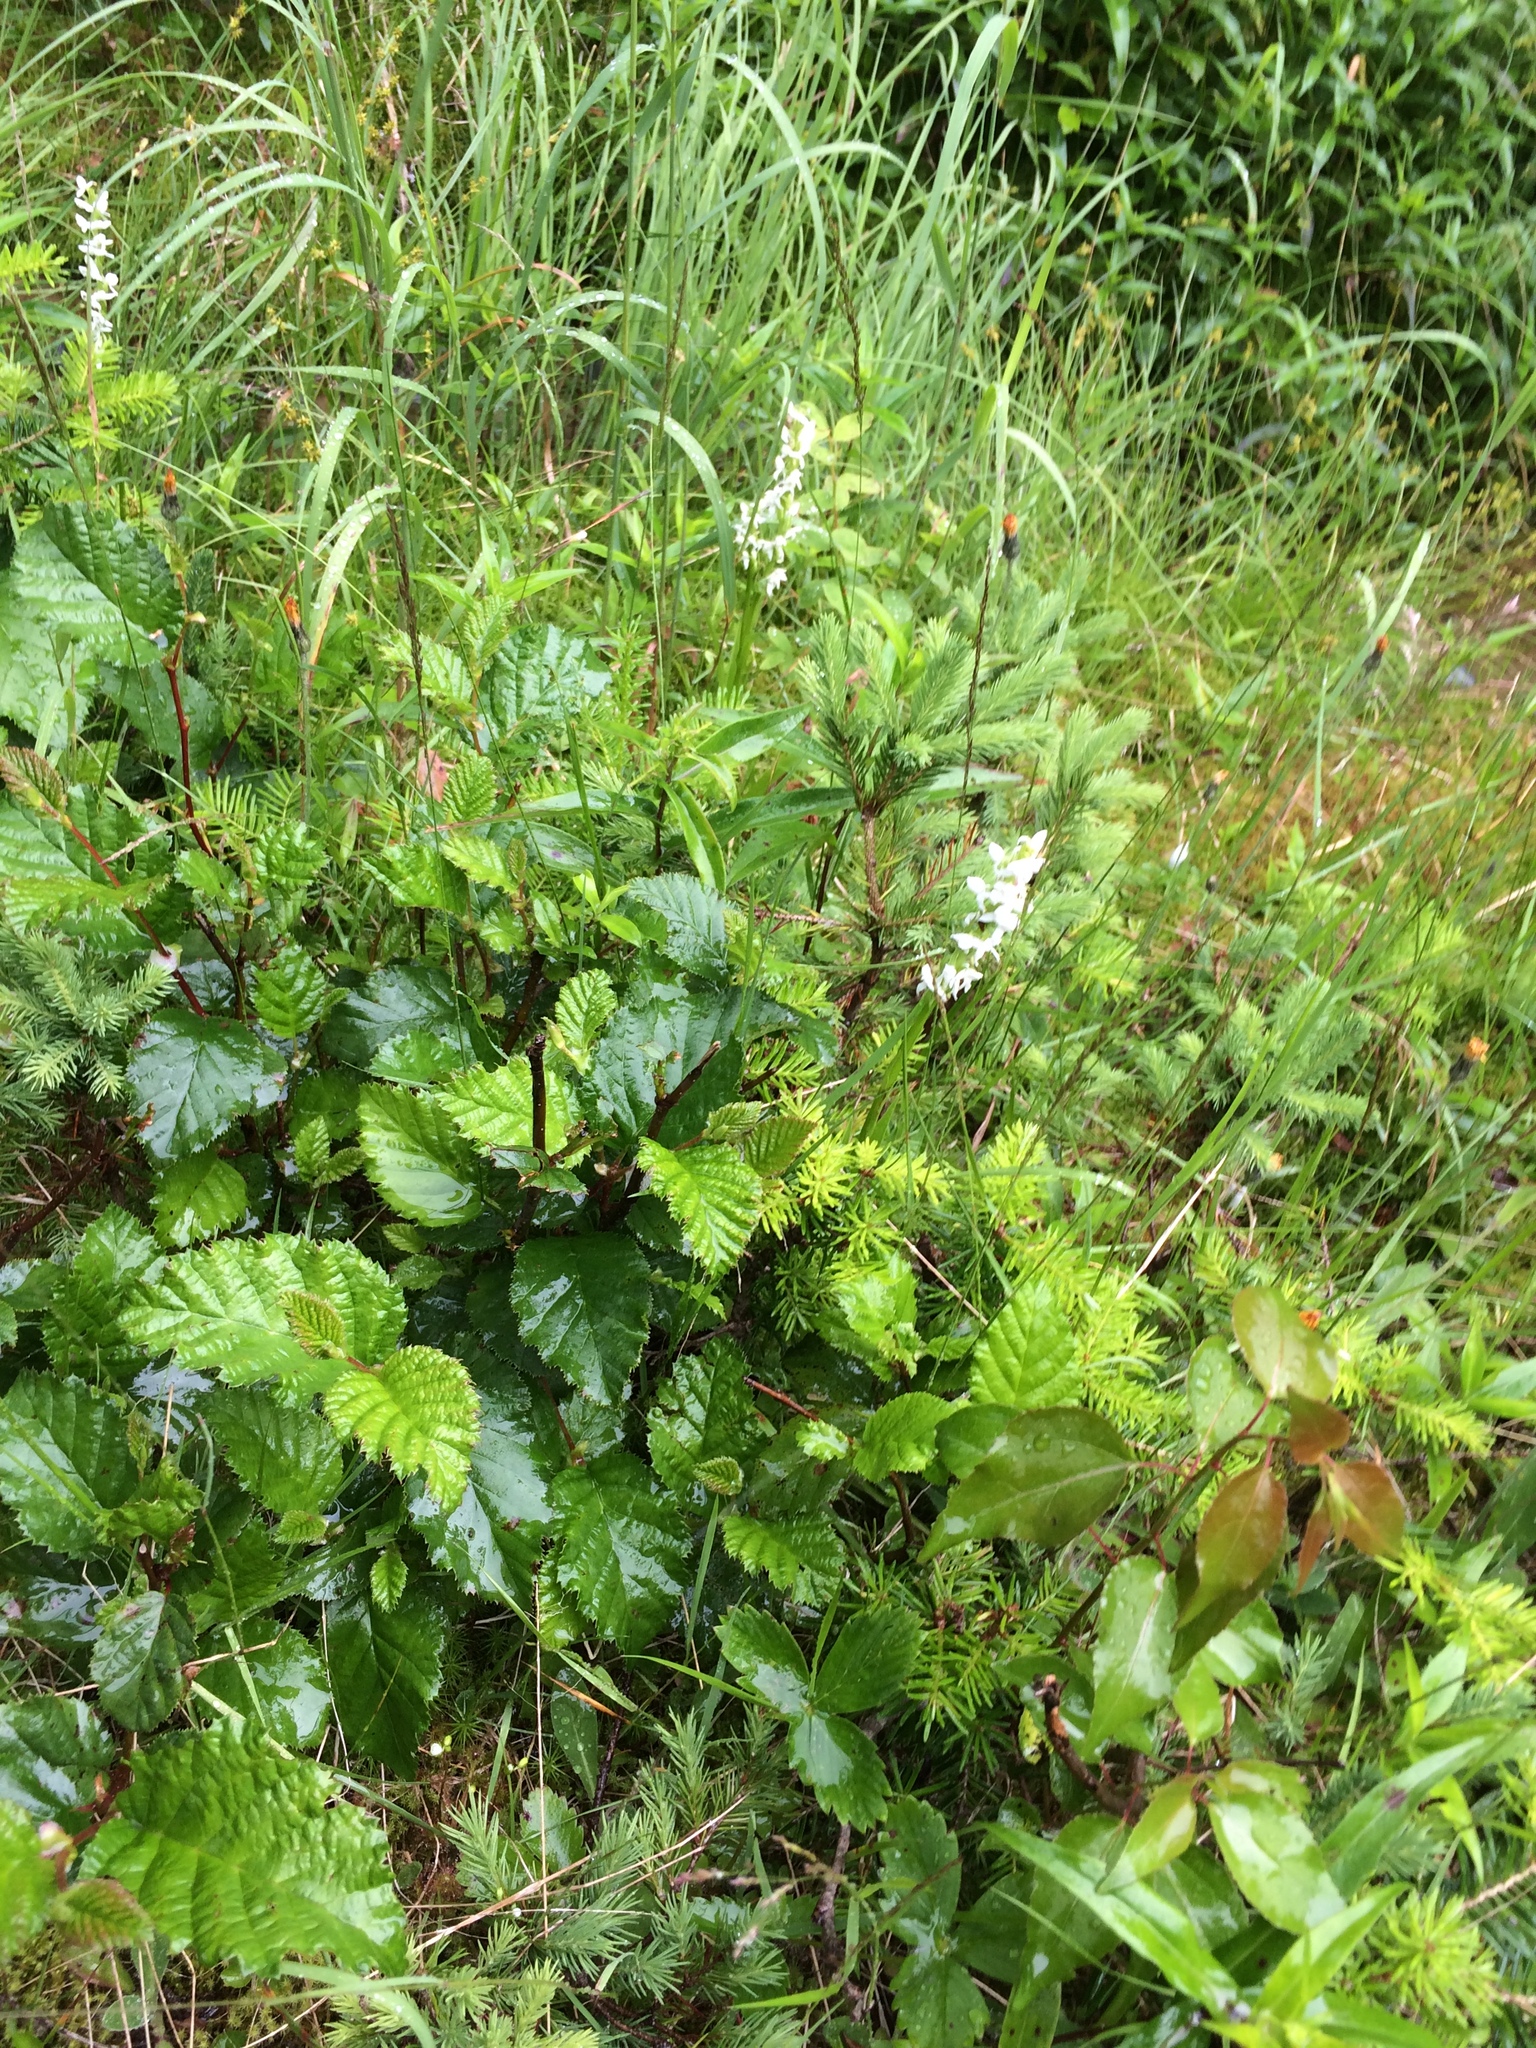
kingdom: Plantae
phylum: Tracheophyta
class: Liliopsida
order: Asparagales
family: Orchidaceae
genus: Platanthera
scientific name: Platanthera dilatata
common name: Bog candles
